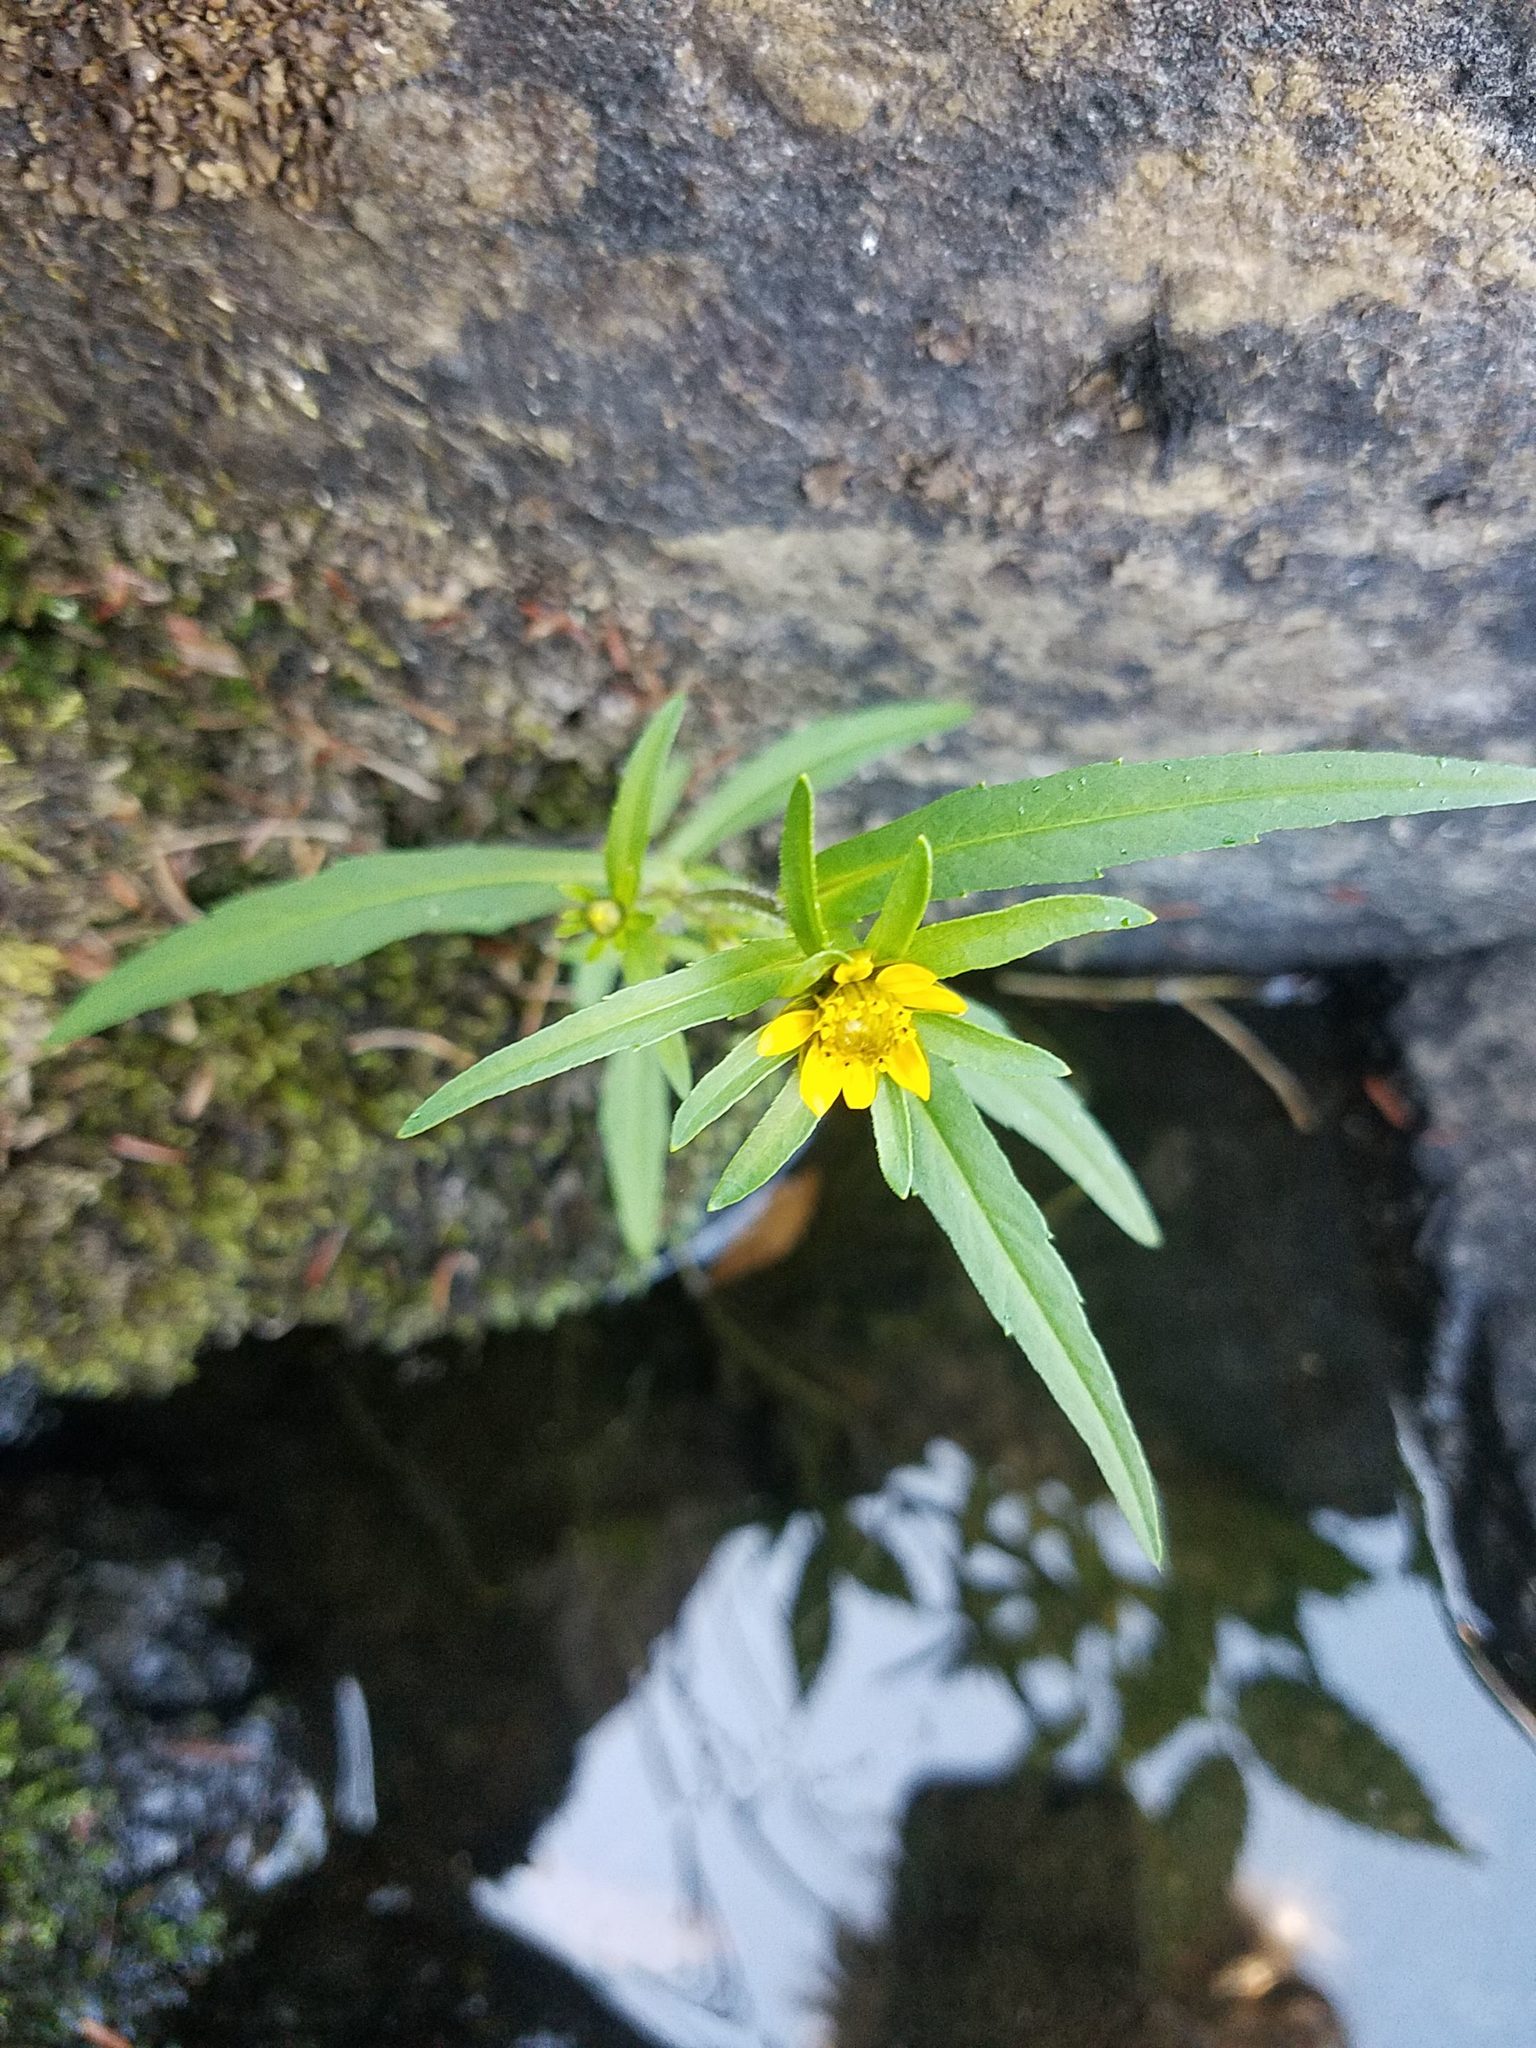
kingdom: Plantae
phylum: Tracheophyta
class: Magnoliopsida
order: Asterales
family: Asteraceae
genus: Bidens
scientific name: Bidens cernua
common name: Nodding bur-marigold
